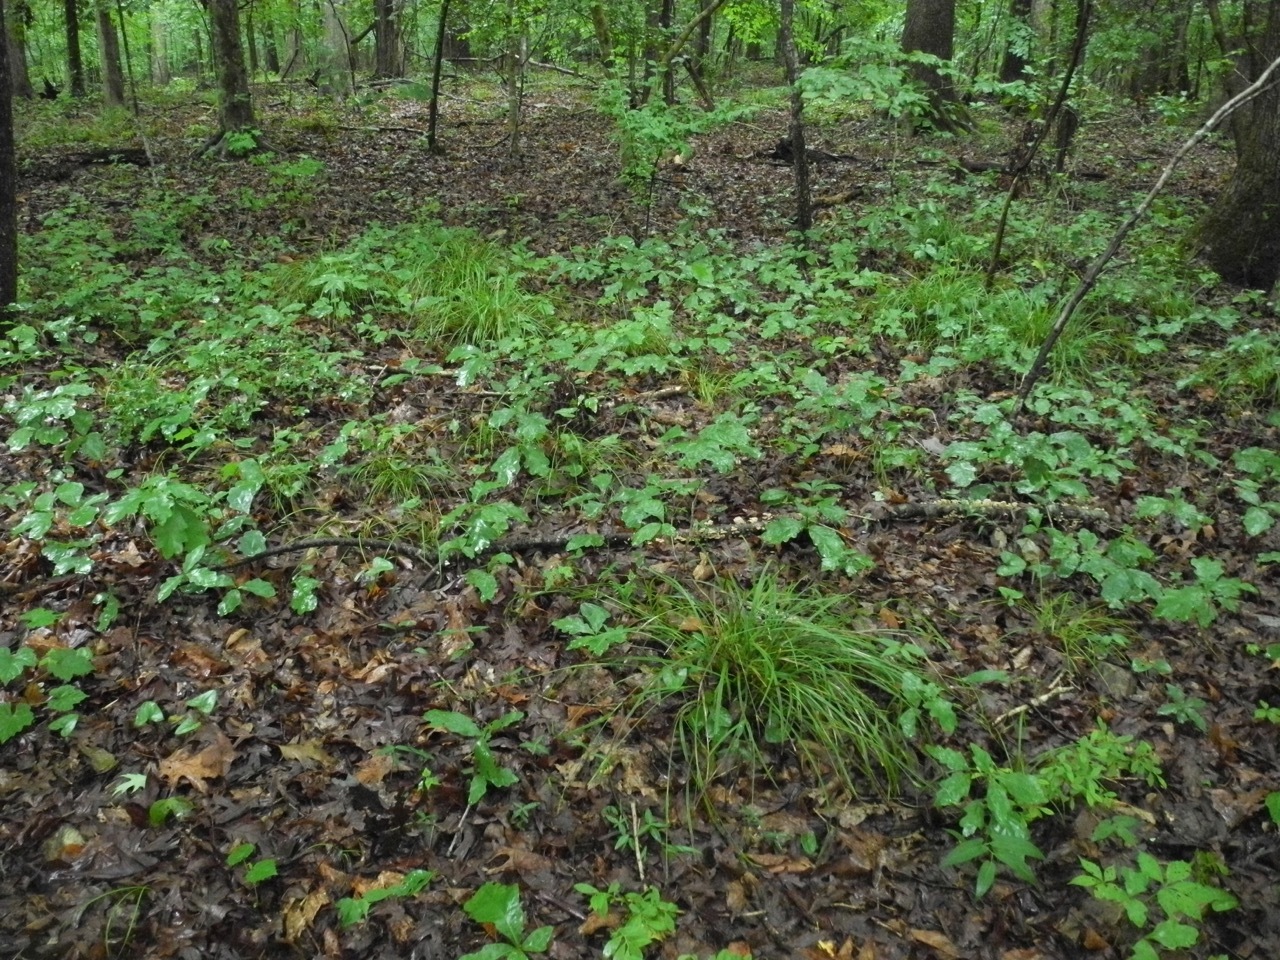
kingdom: Plantae
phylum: Tracheophyta
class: Liliopsida
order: Poales
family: Cyperaceae
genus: Scleria
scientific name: Scleria oligantha
